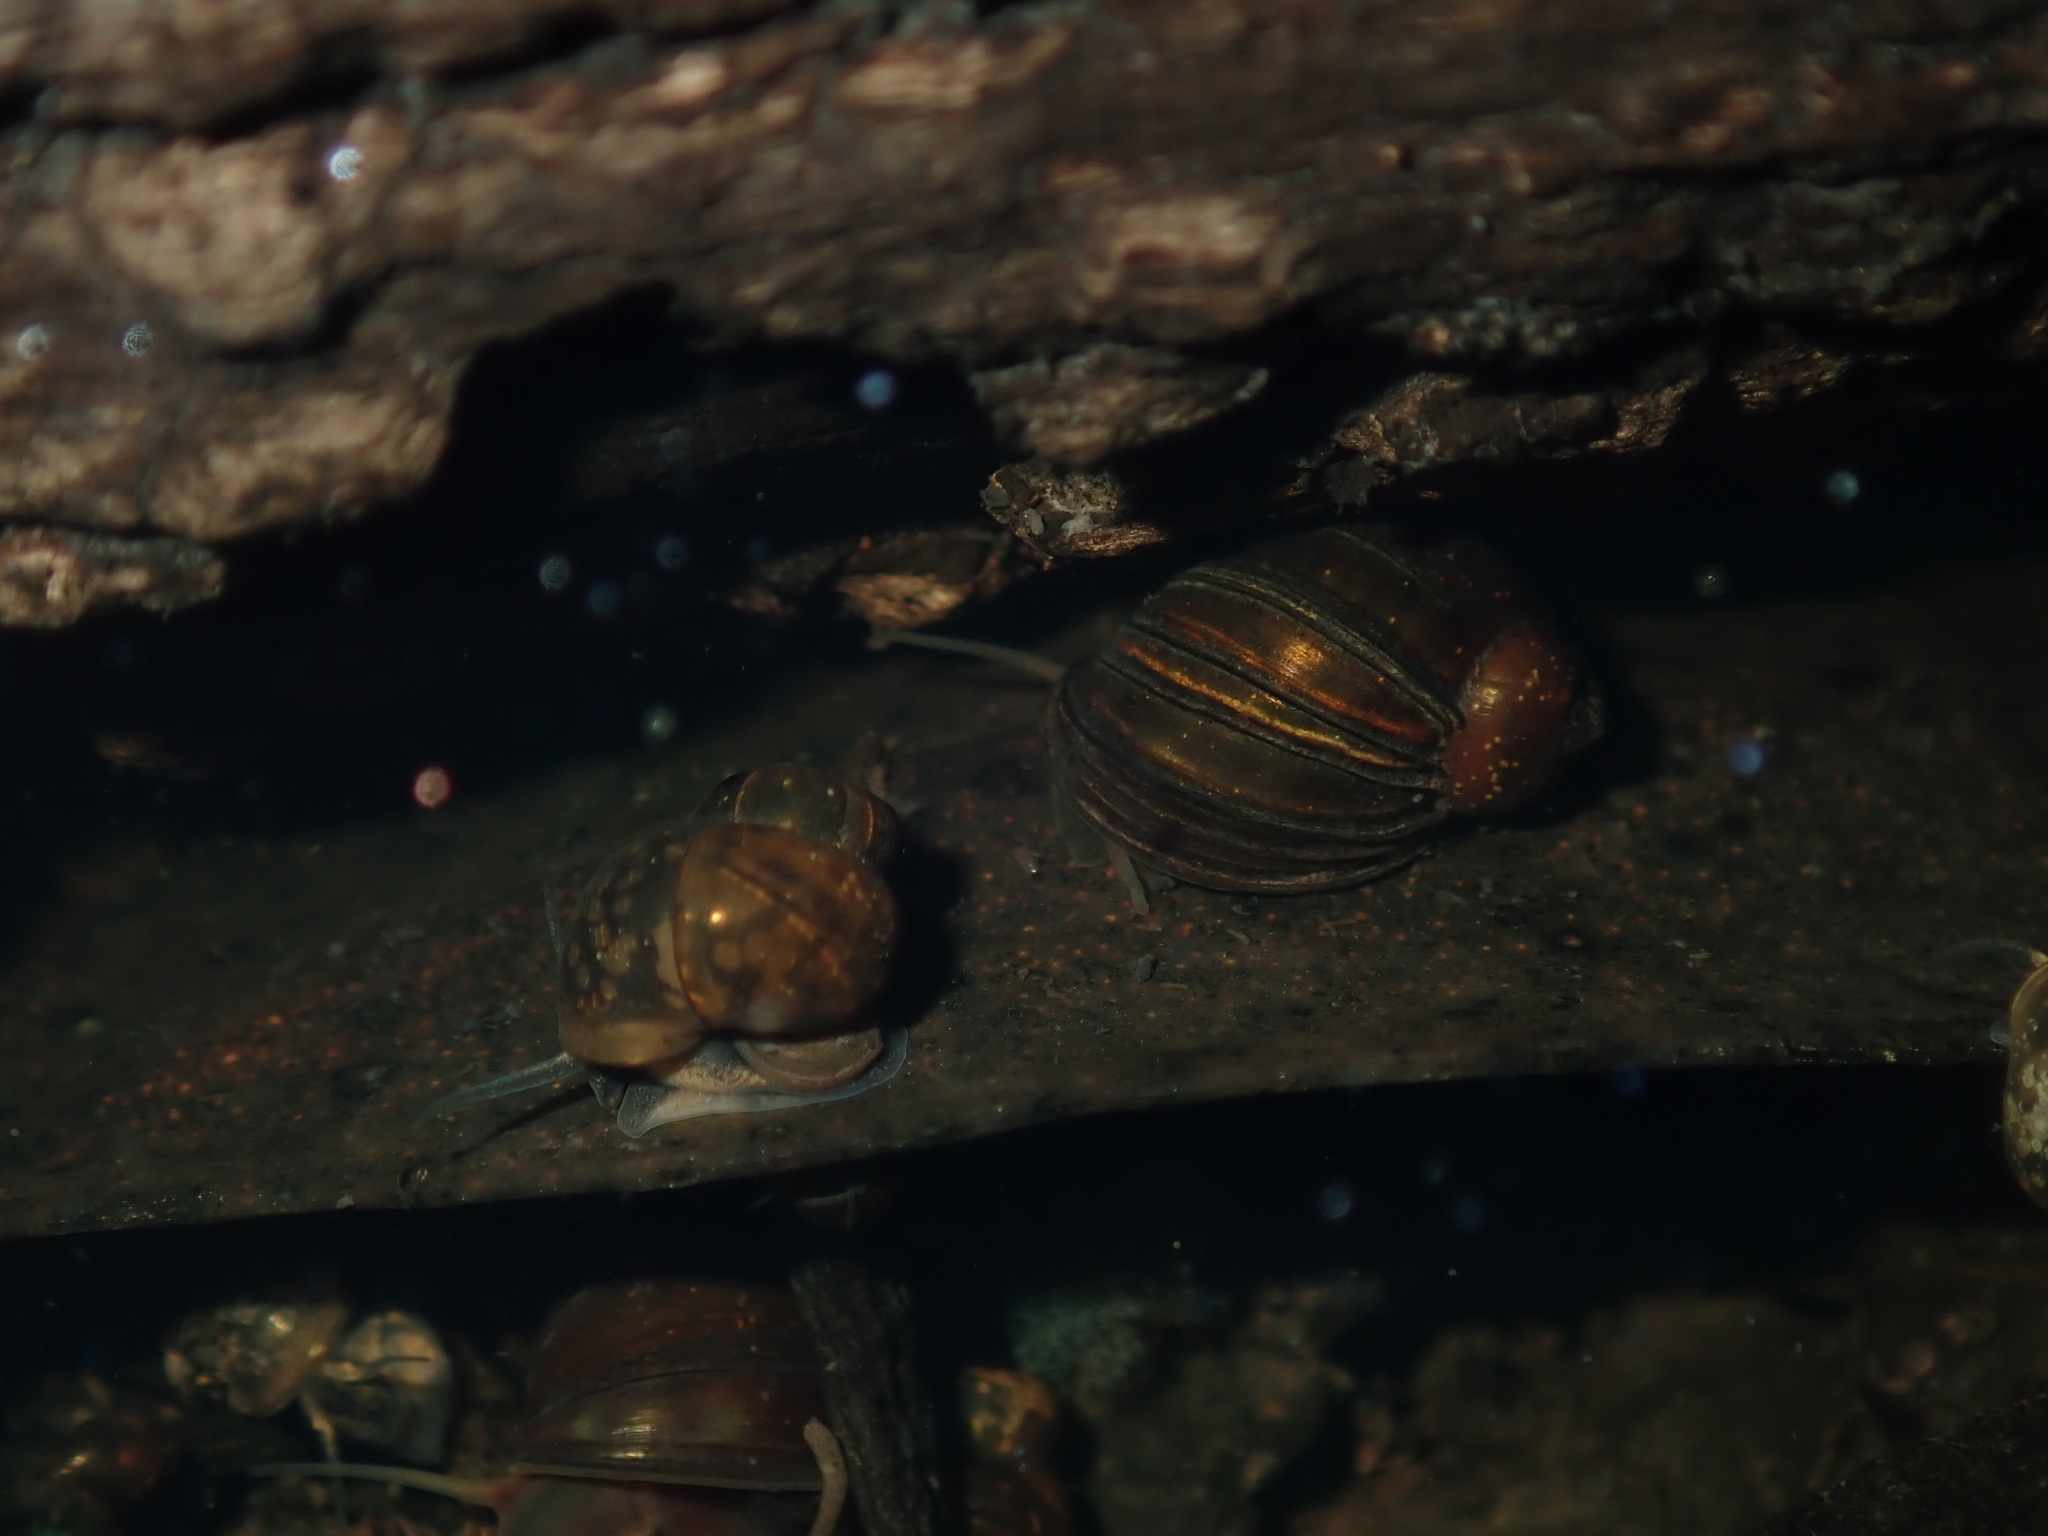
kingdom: Animalia
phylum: Mollusca
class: Gastropoda
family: Planorbidae
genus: Isidorella
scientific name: Isidorella hainesii
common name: Haine’s pouch snail
